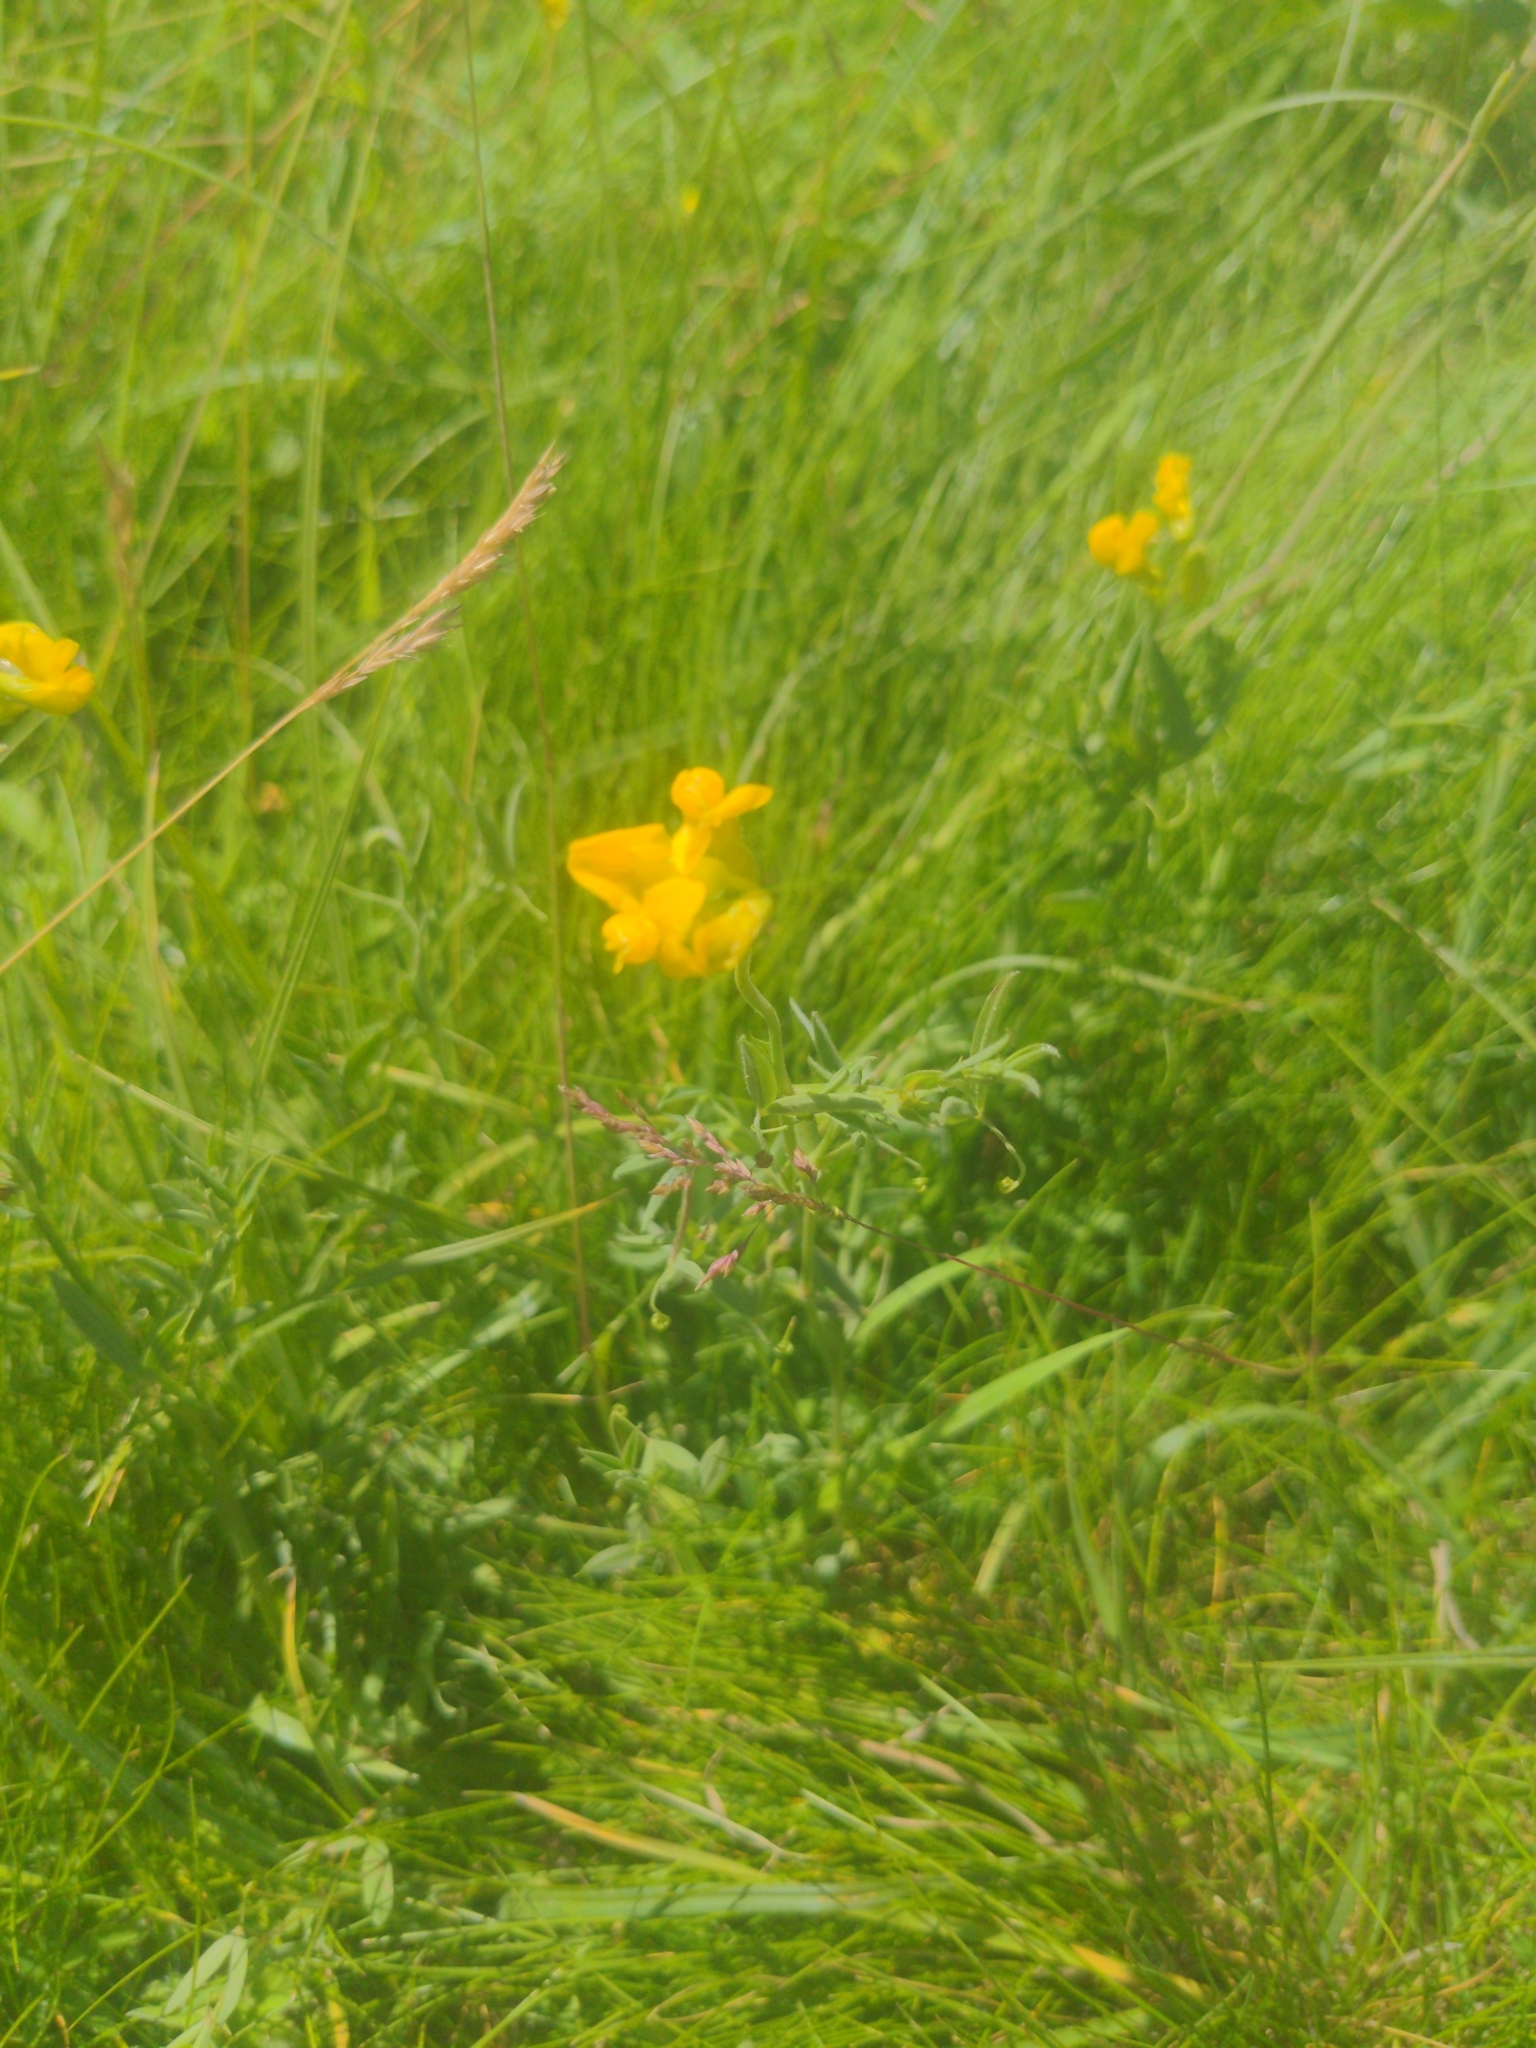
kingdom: Plantae
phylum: Tracheophyta
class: Magnoliopsida
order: Fabales
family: Fabaceae
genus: Lathyrus
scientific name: Lathyrus pratensis
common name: Meadow vetchling
